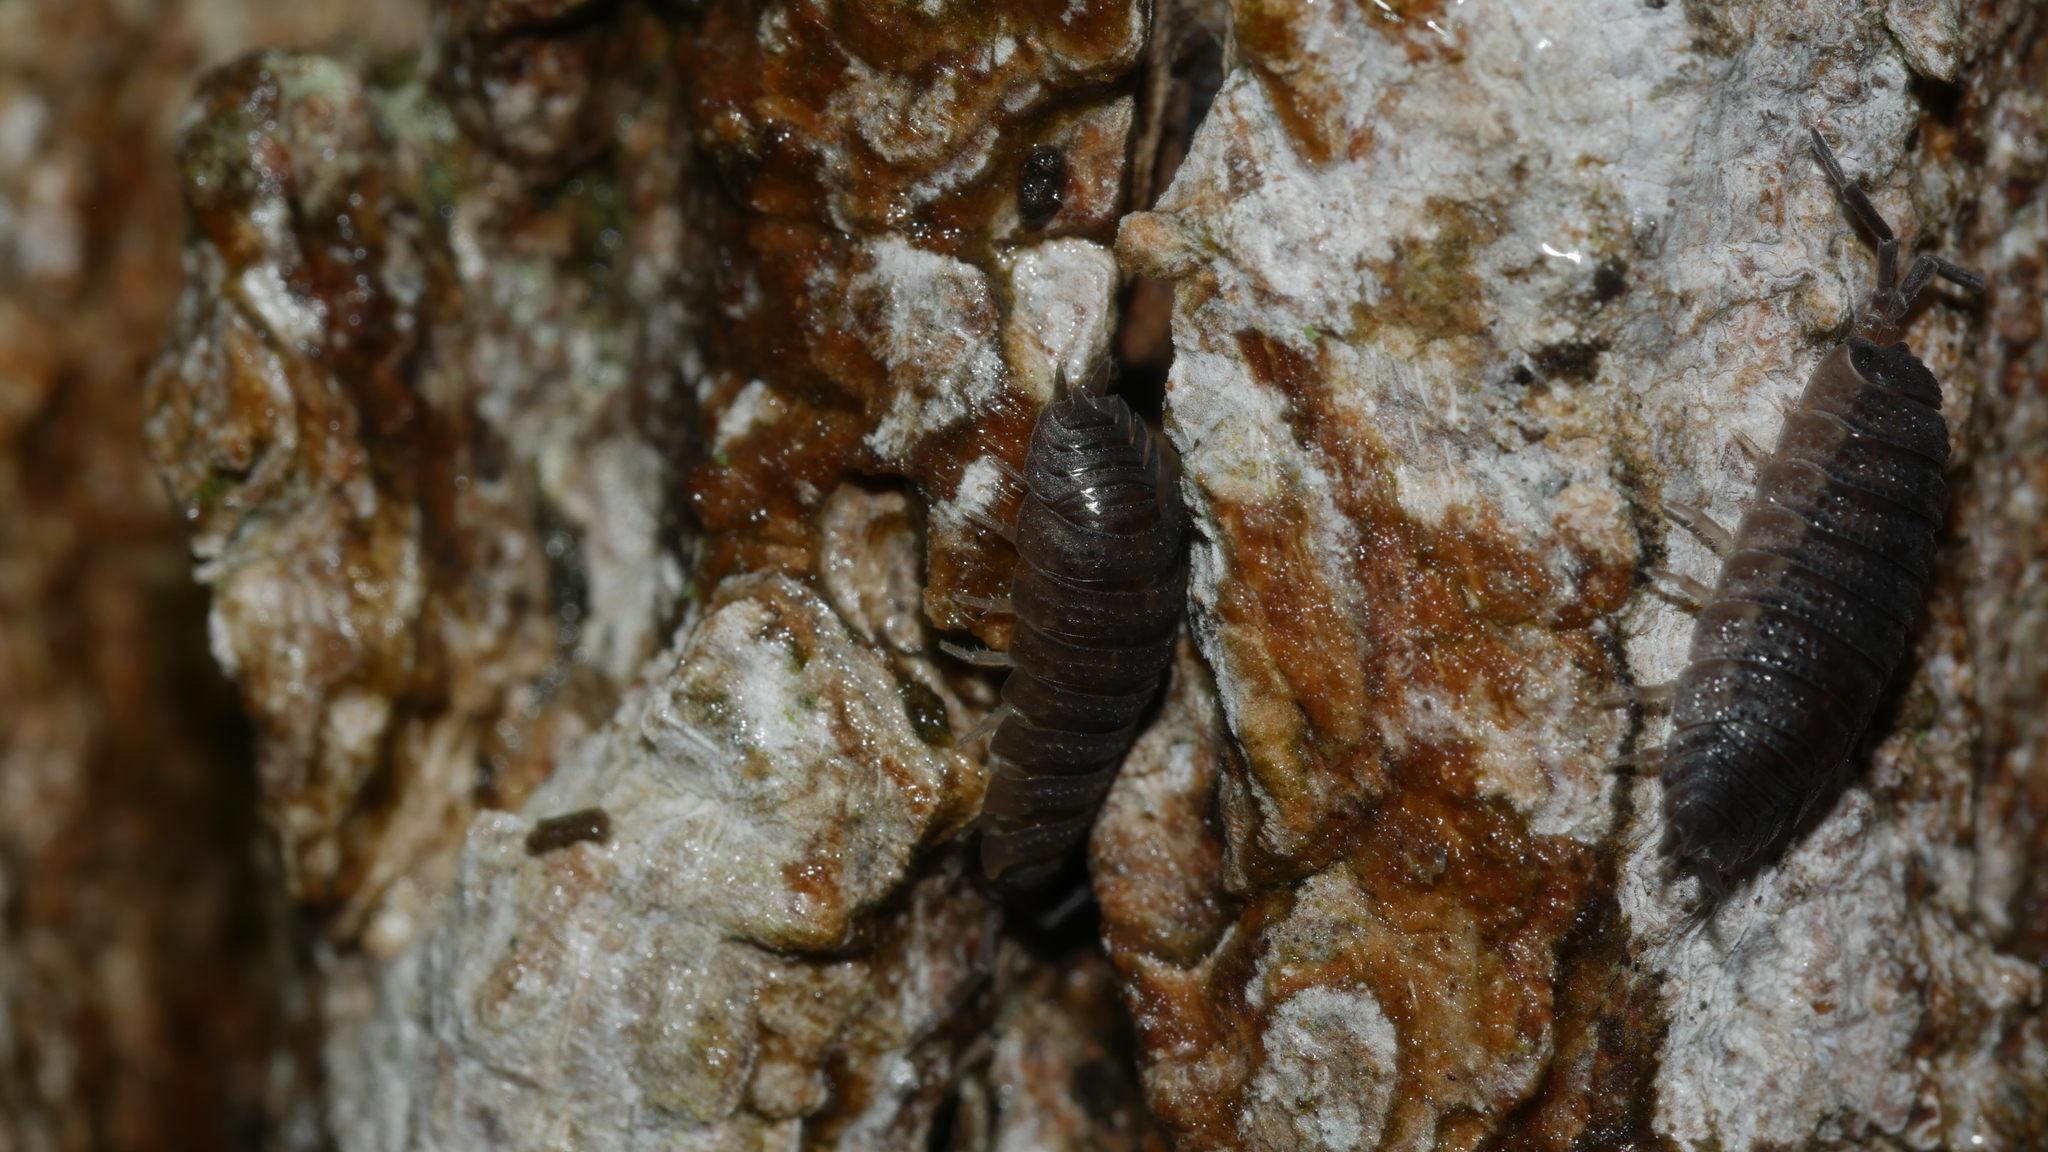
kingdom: Animalia
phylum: Arthropoda
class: Malacostraca
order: Isopoda
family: Porcellionidae
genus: Porcellio
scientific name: Porcellio scaber
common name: Common rough woodlouse
